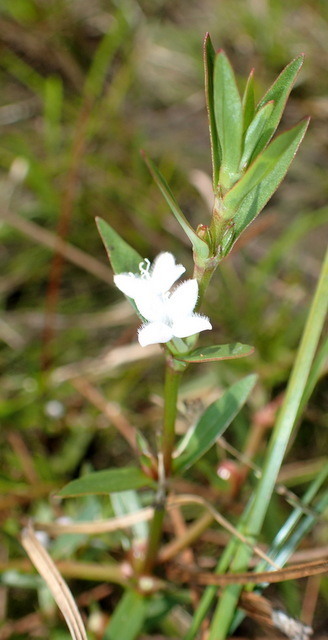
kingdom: Plantae
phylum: Tracheophyta
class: Magnoliopsida
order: Gentianales
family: Rubiaceae
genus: Diodia
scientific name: Diodia virginiana
